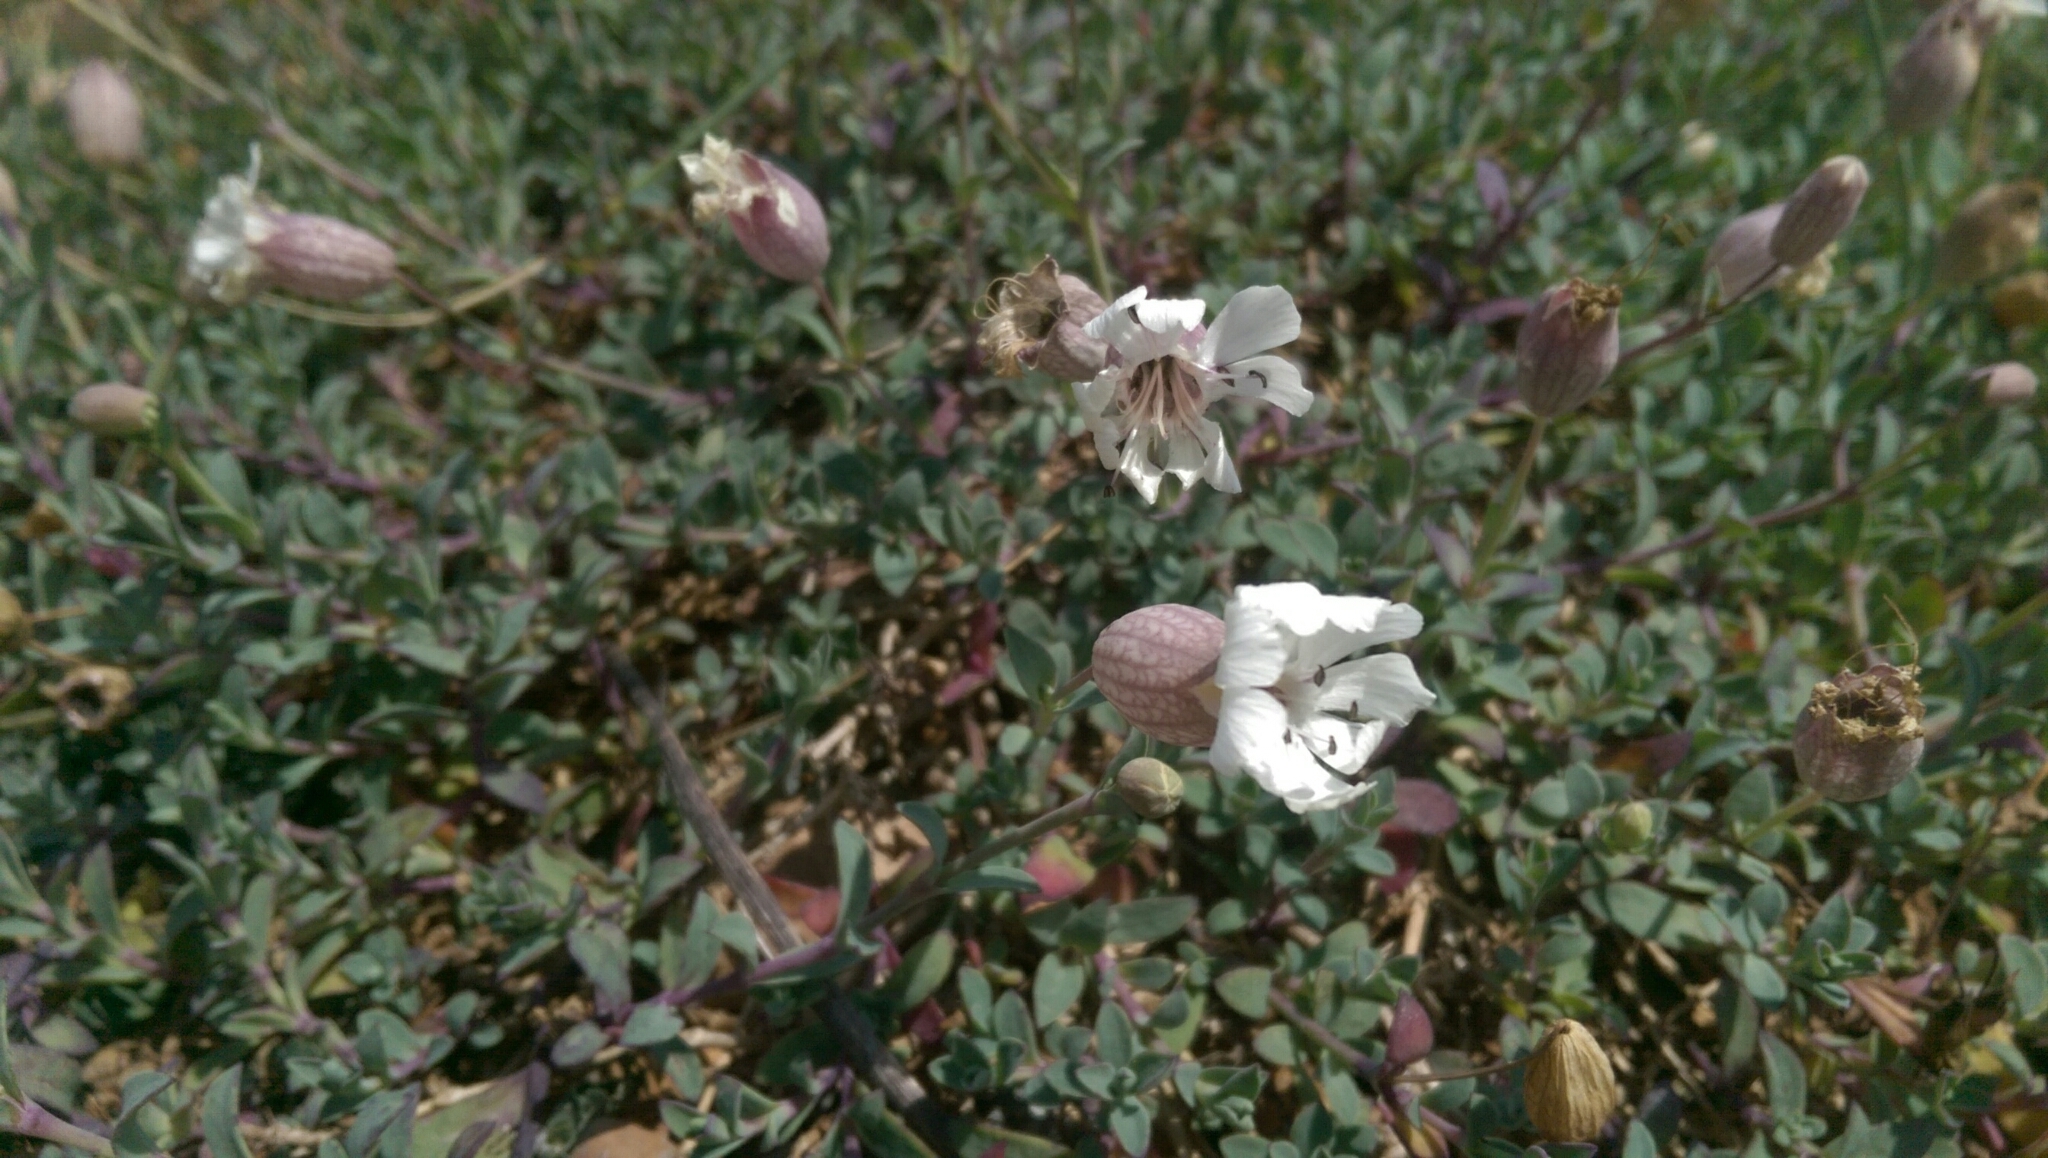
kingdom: Plantae
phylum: Tracheophyta
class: Magnoliopsida
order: Caryophyllales
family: Caryophyllaceae
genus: Silene
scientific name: Silene uniflora
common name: Sea campion
